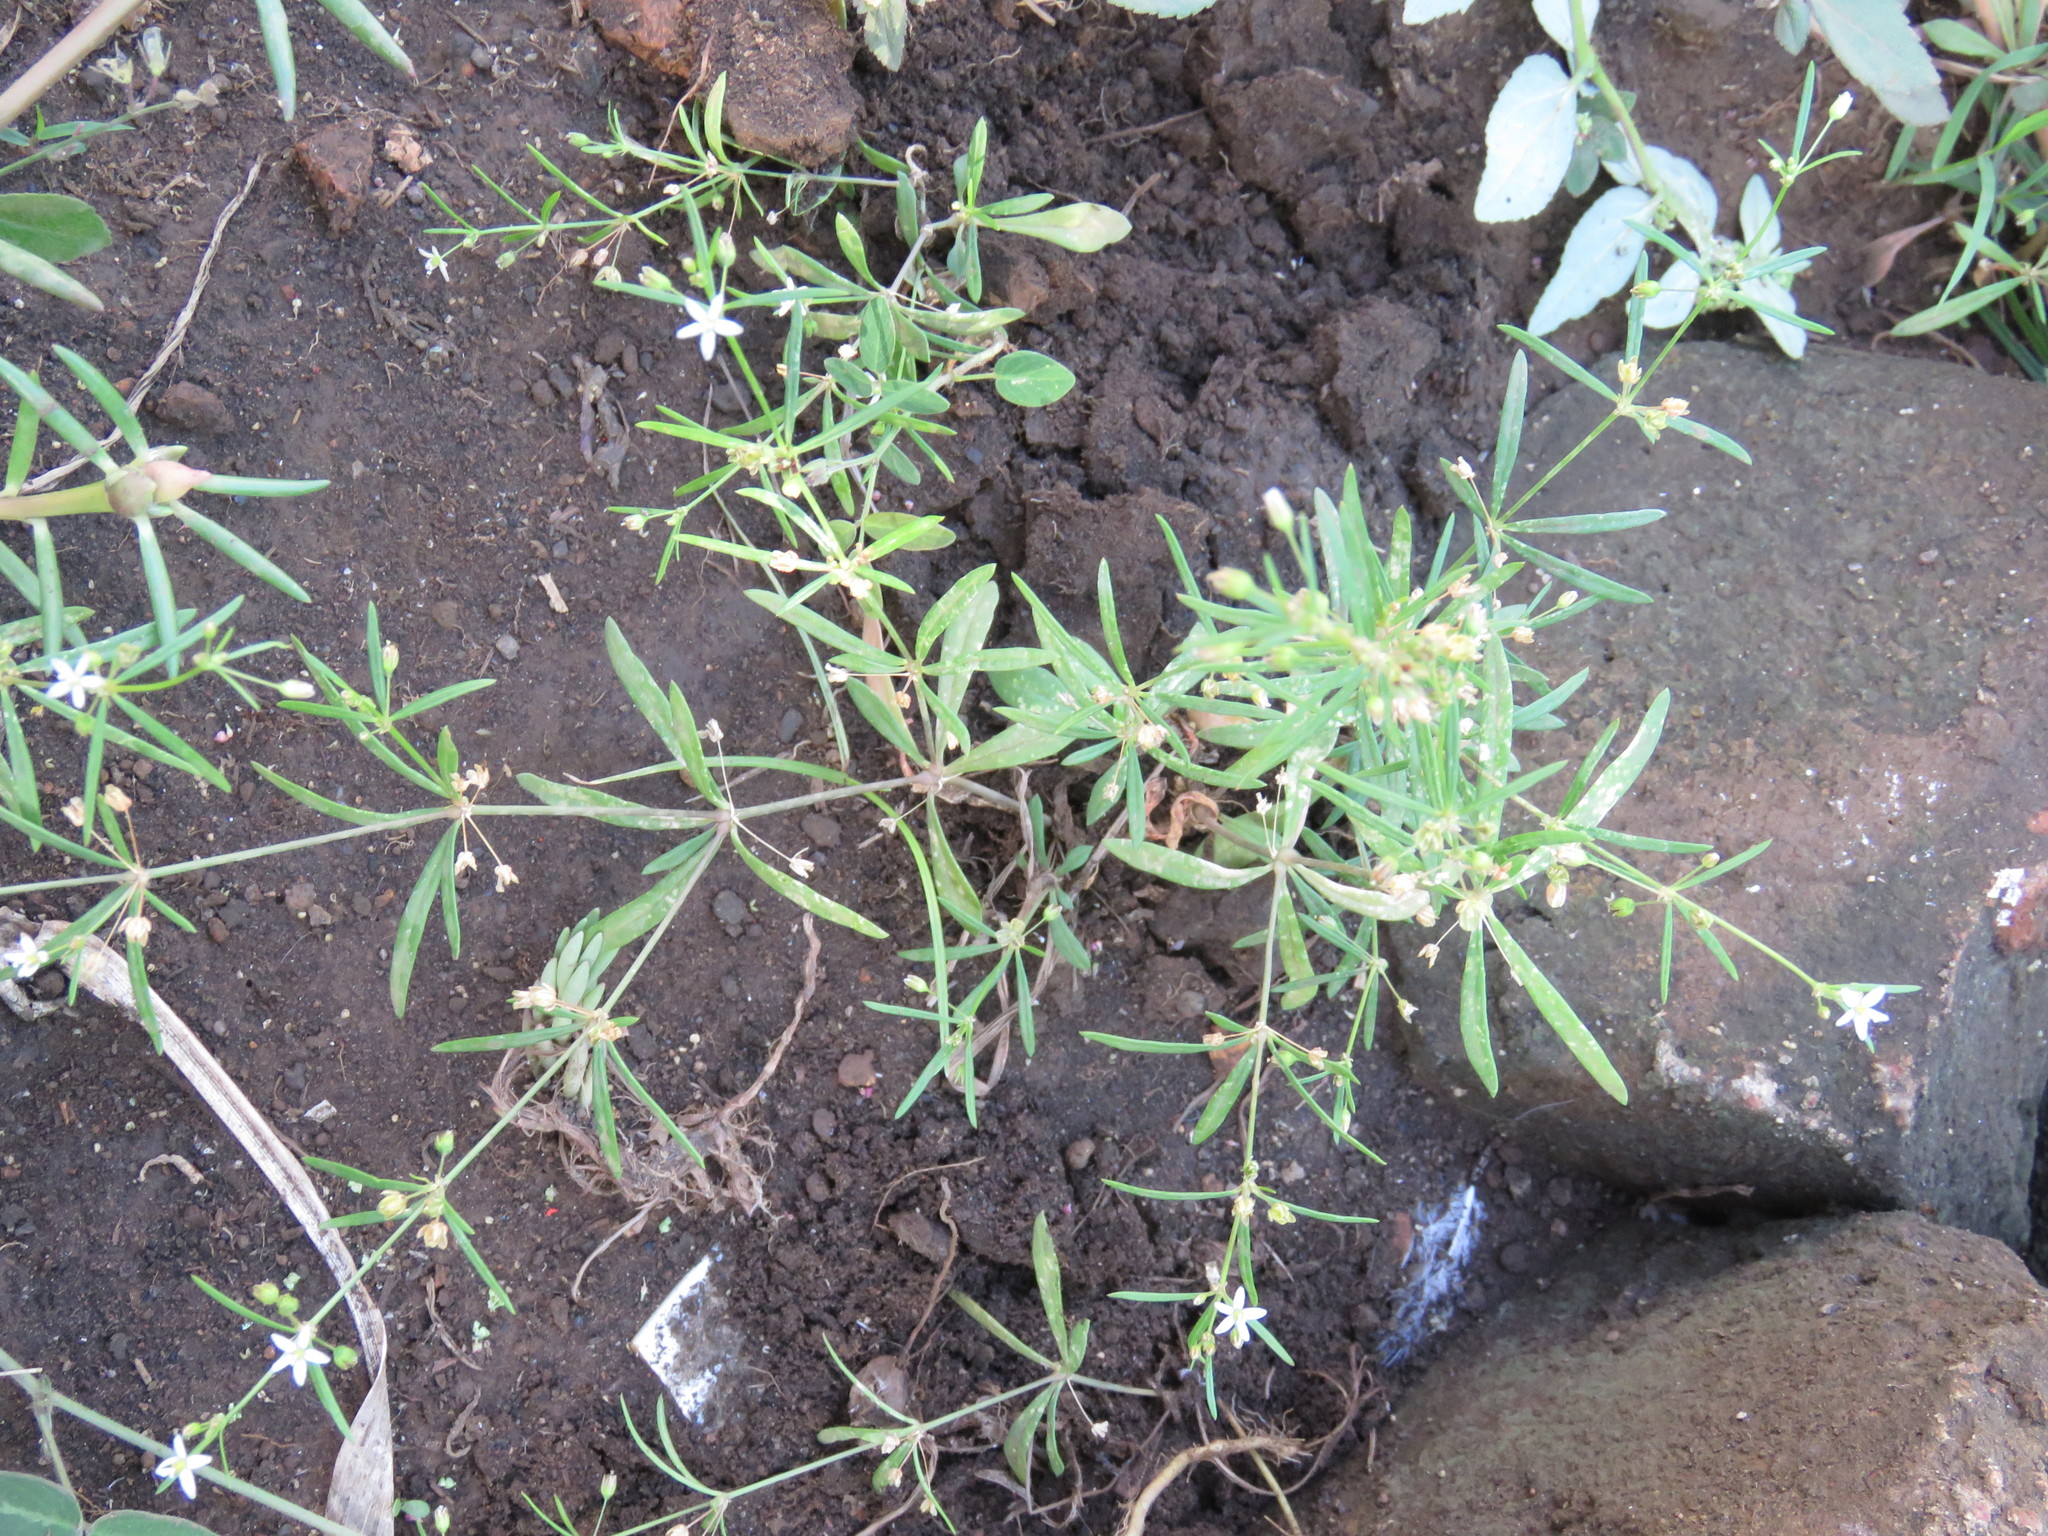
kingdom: Plantae
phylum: Tracheophyta
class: Magnoliopsida
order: Caryophyllales
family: Molluginaceae
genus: Mollugo
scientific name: Mollugo verticillata
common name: Green carpetweed
